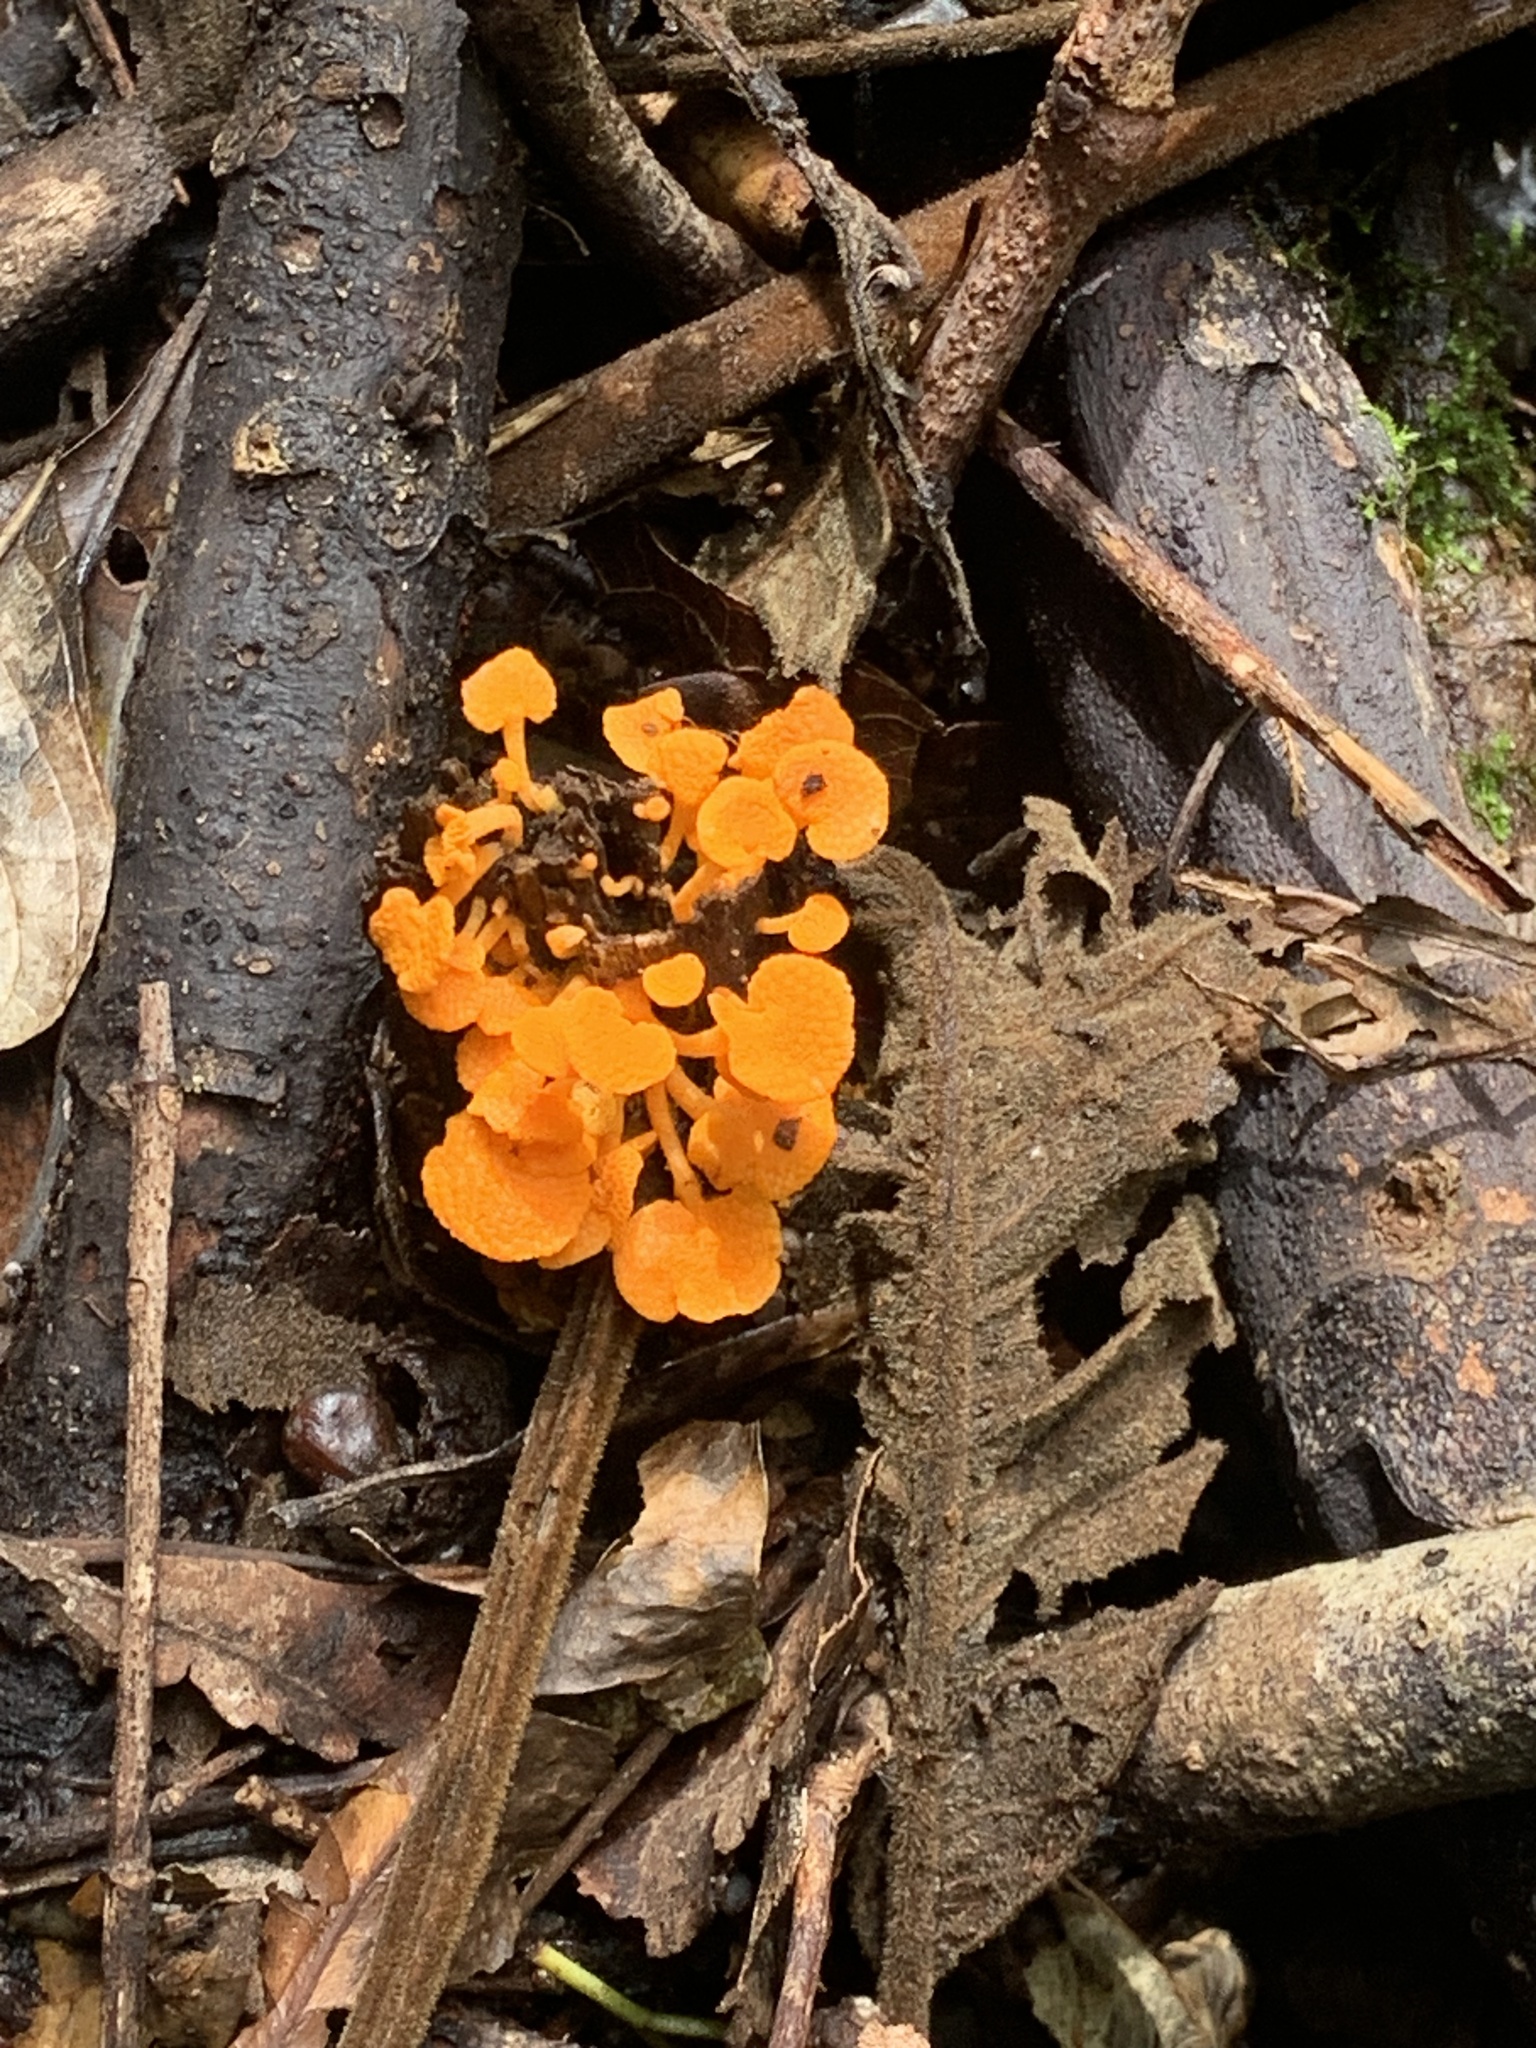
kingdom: Fungi
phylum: Basidiomycota
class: Agaricomycetes
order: Agaricales
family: Mycenaceae
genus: Favolaschia
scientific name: Favolaschia claudopus
